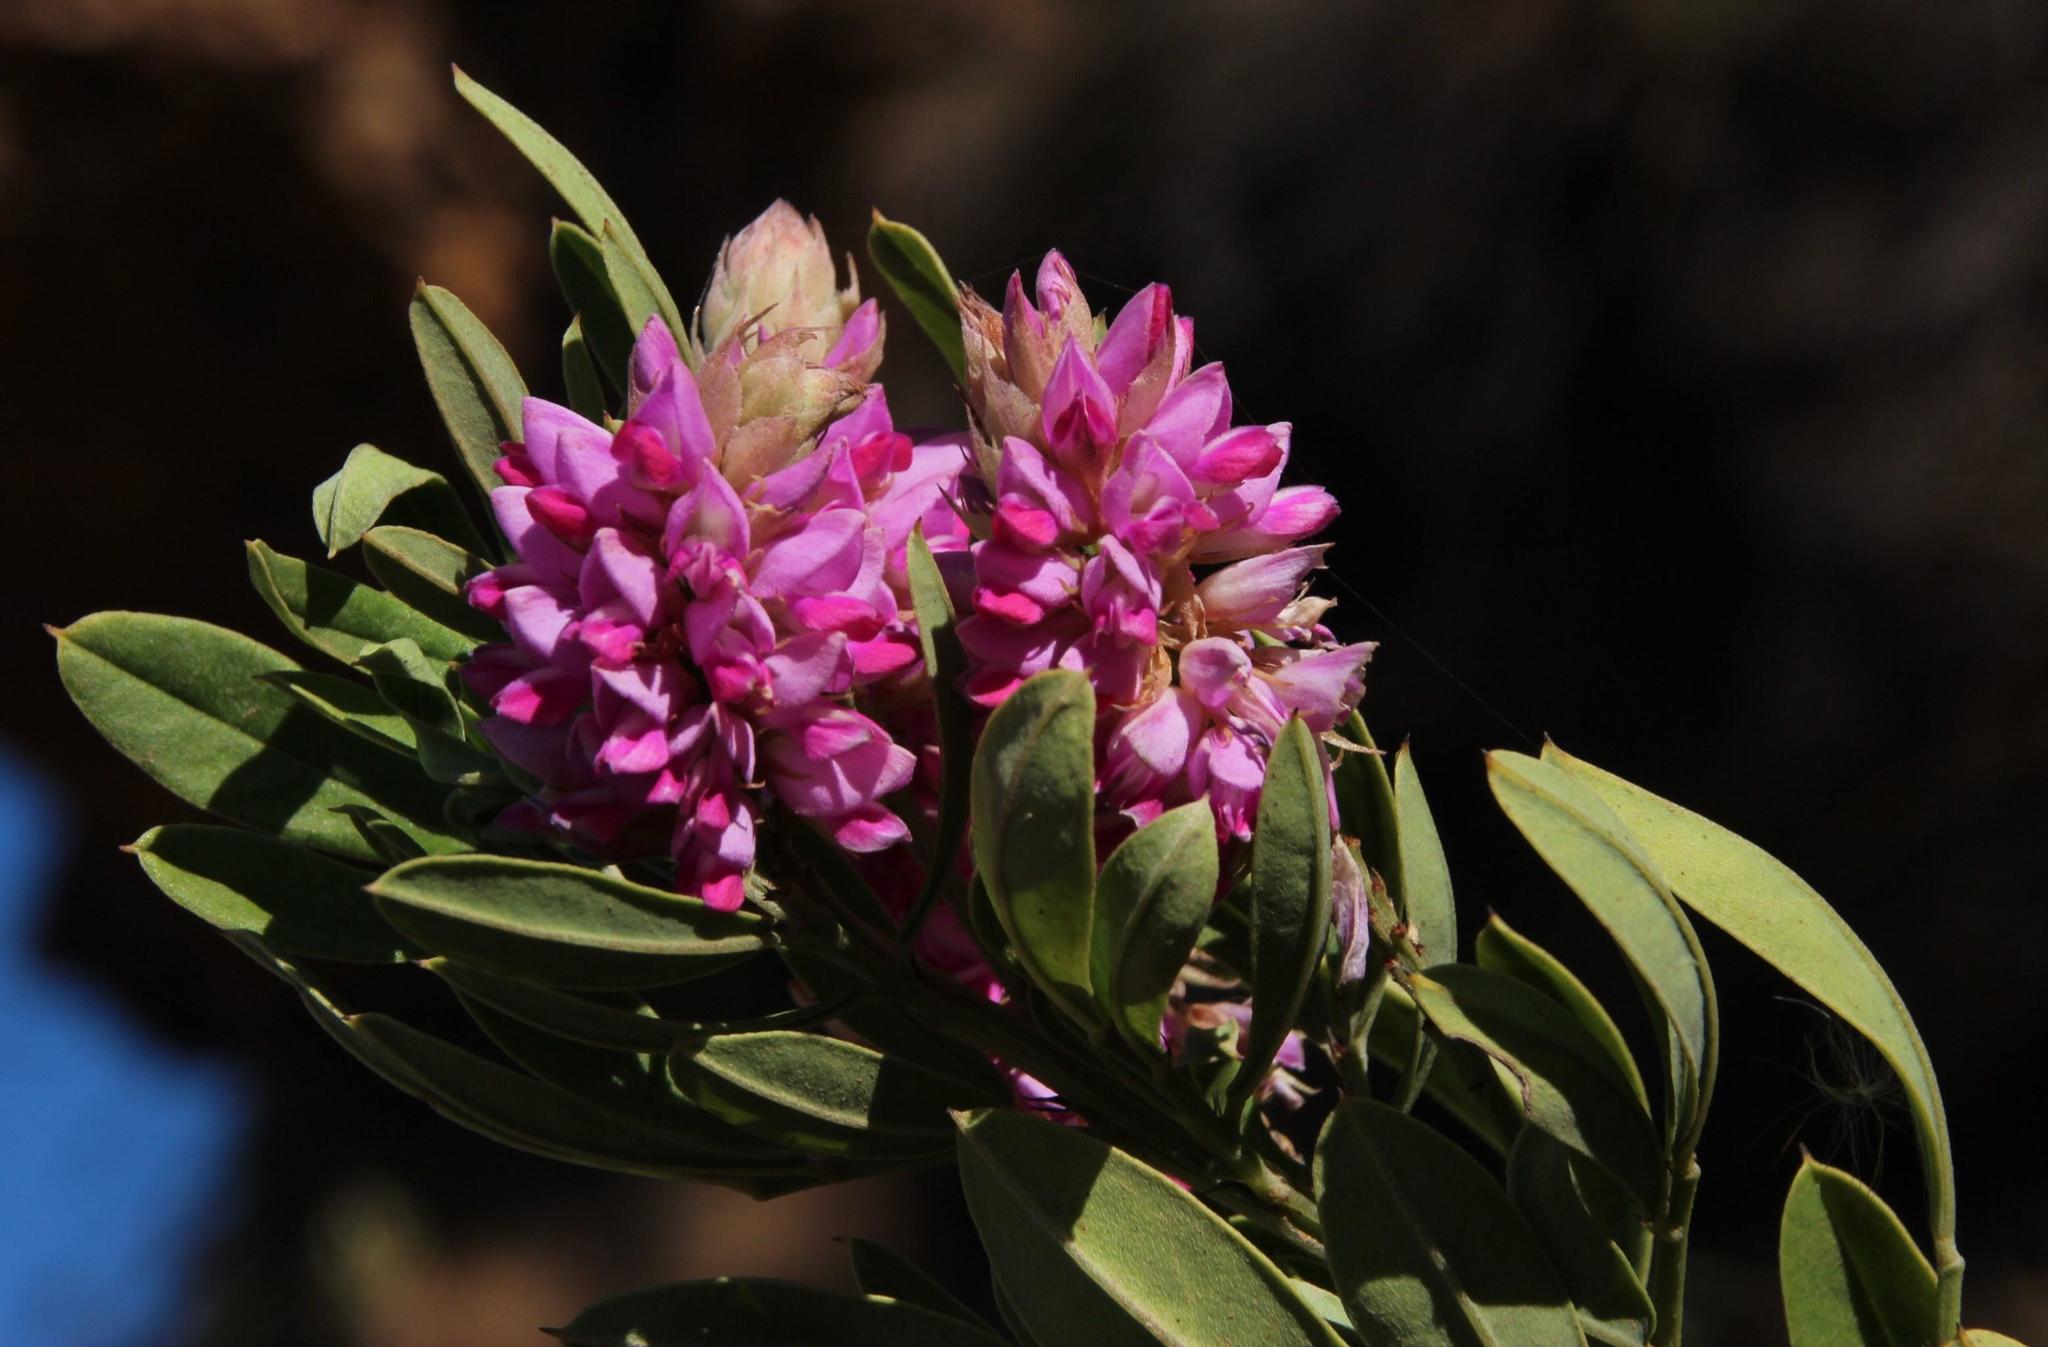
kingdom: Plantae
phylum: Tracheophyta
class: Magnoliopsida
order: Fabales
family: Fabaceae
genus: Indigofera
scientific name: Indigofera cytisoides
